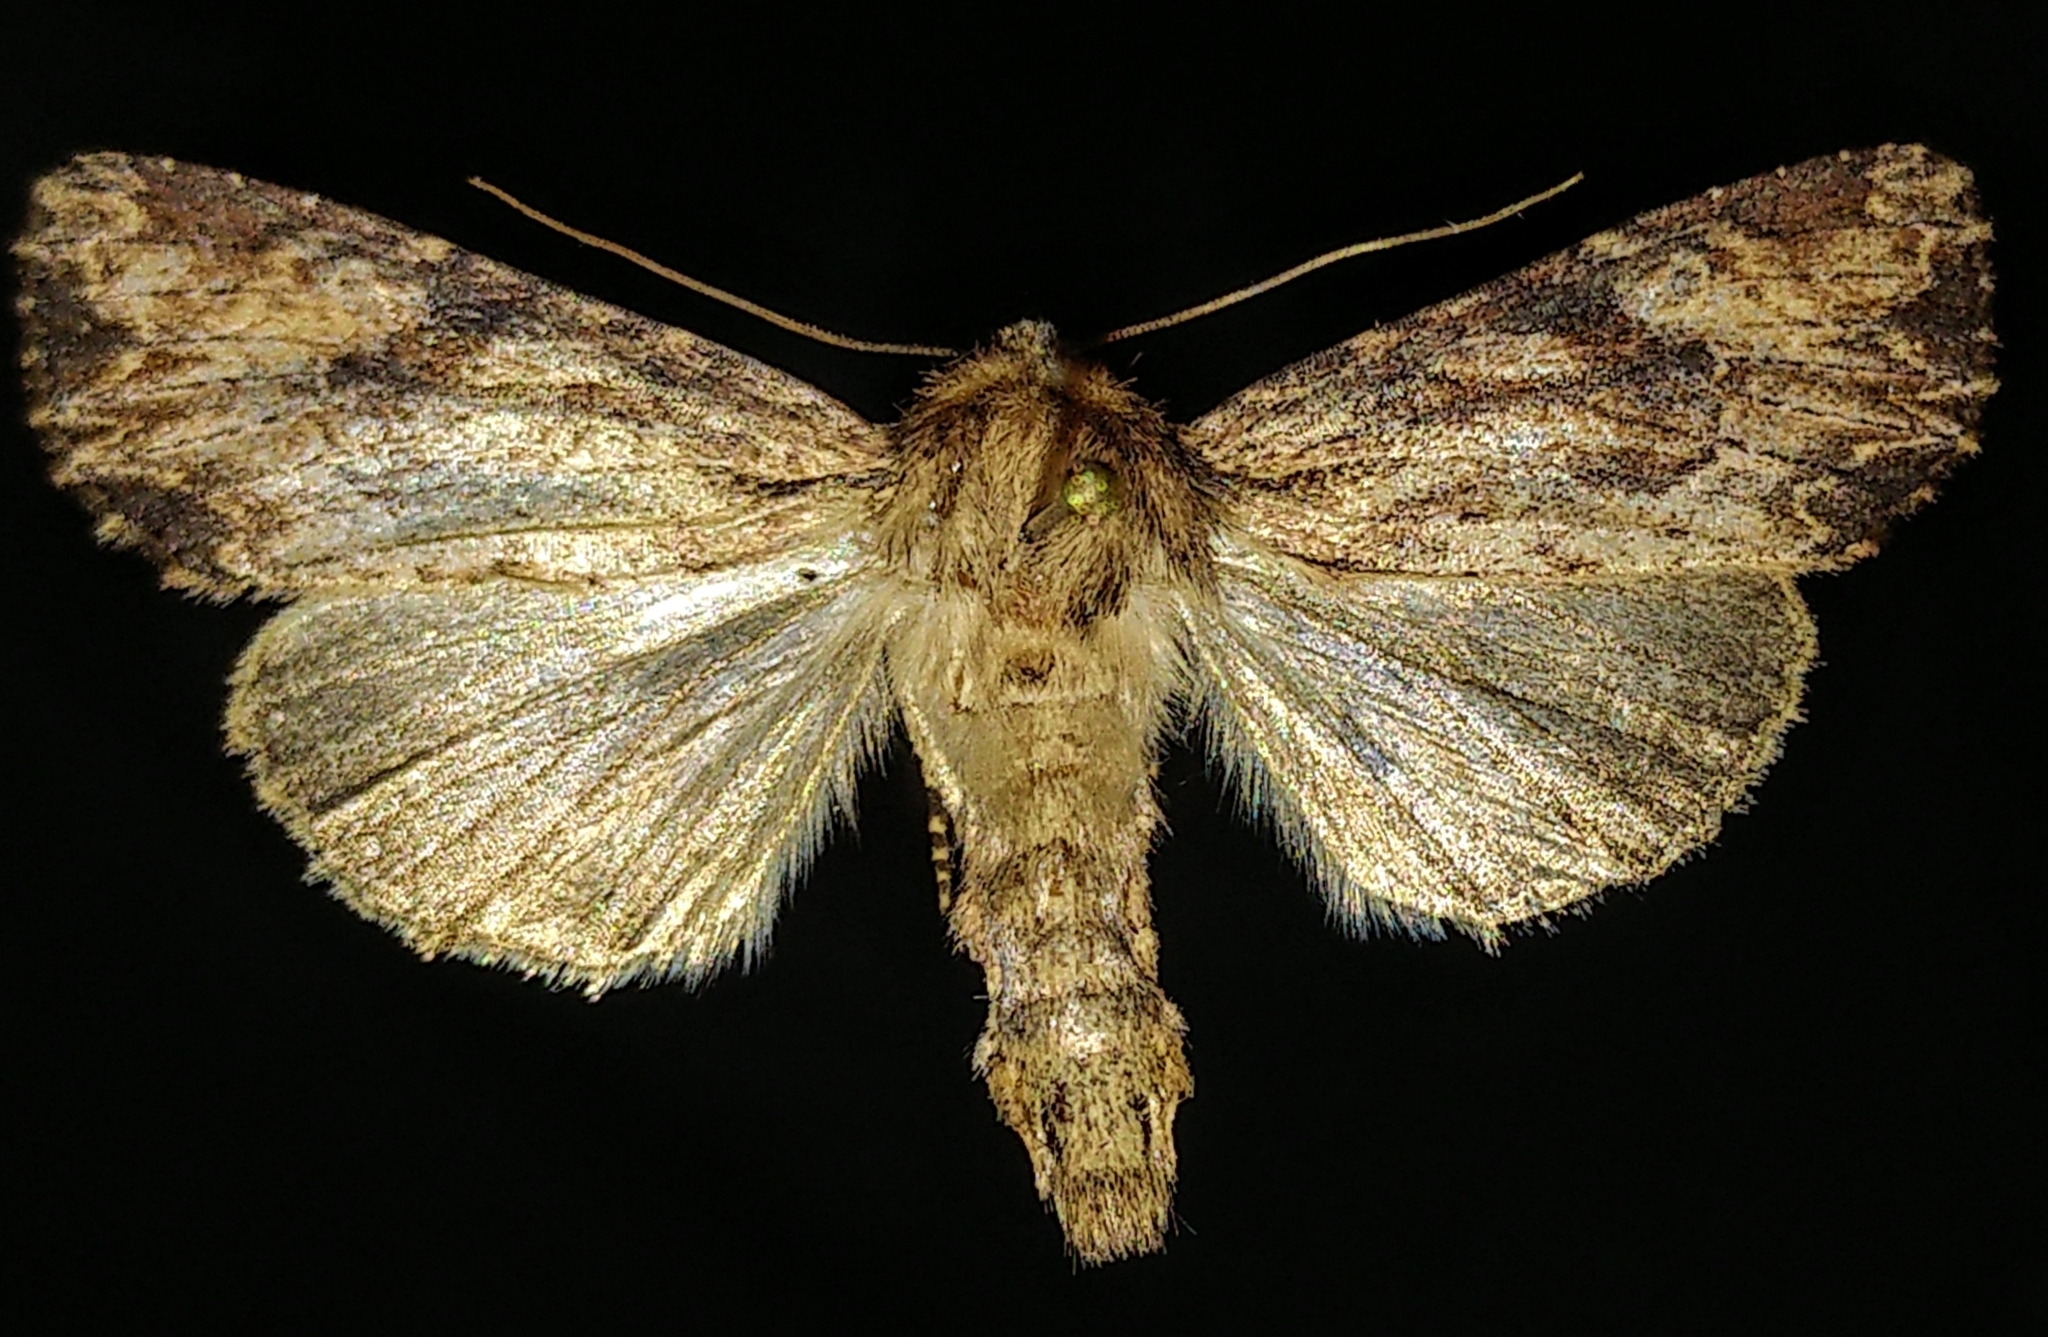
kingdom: Animalia
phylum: Arthropoda
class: Insecta
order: Lepidoptera
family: Noctuidae
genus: Apamea
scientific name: Apamea lignicolora
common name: Wood-colored apamea moth
